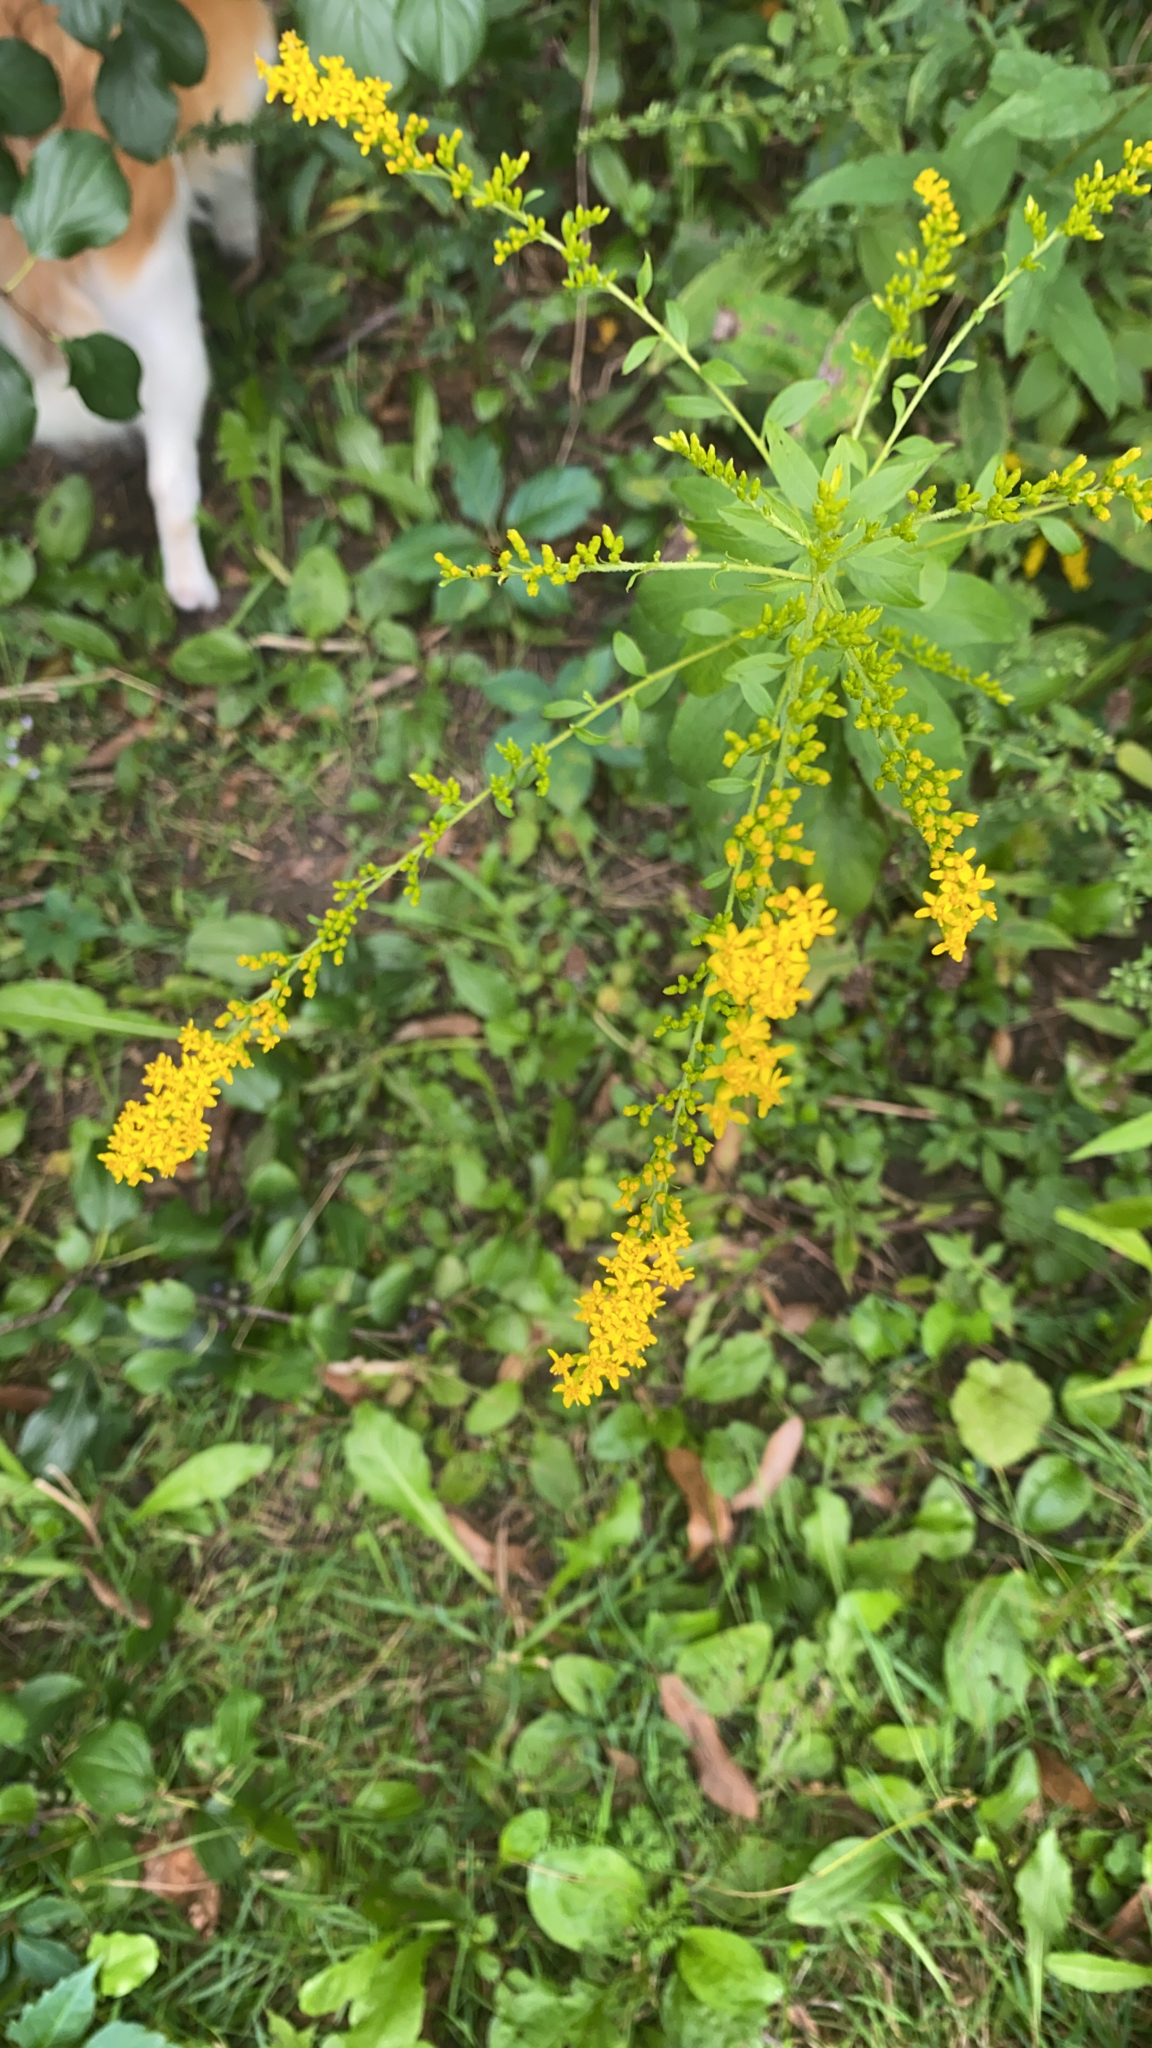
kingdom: Plantae
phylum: Tracheophyta
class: Magnoliopsida
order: Asterales
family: Asteraceae
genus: Solidago
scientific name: Solidago ulmifolia
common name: Elm-leaf goldenrod
